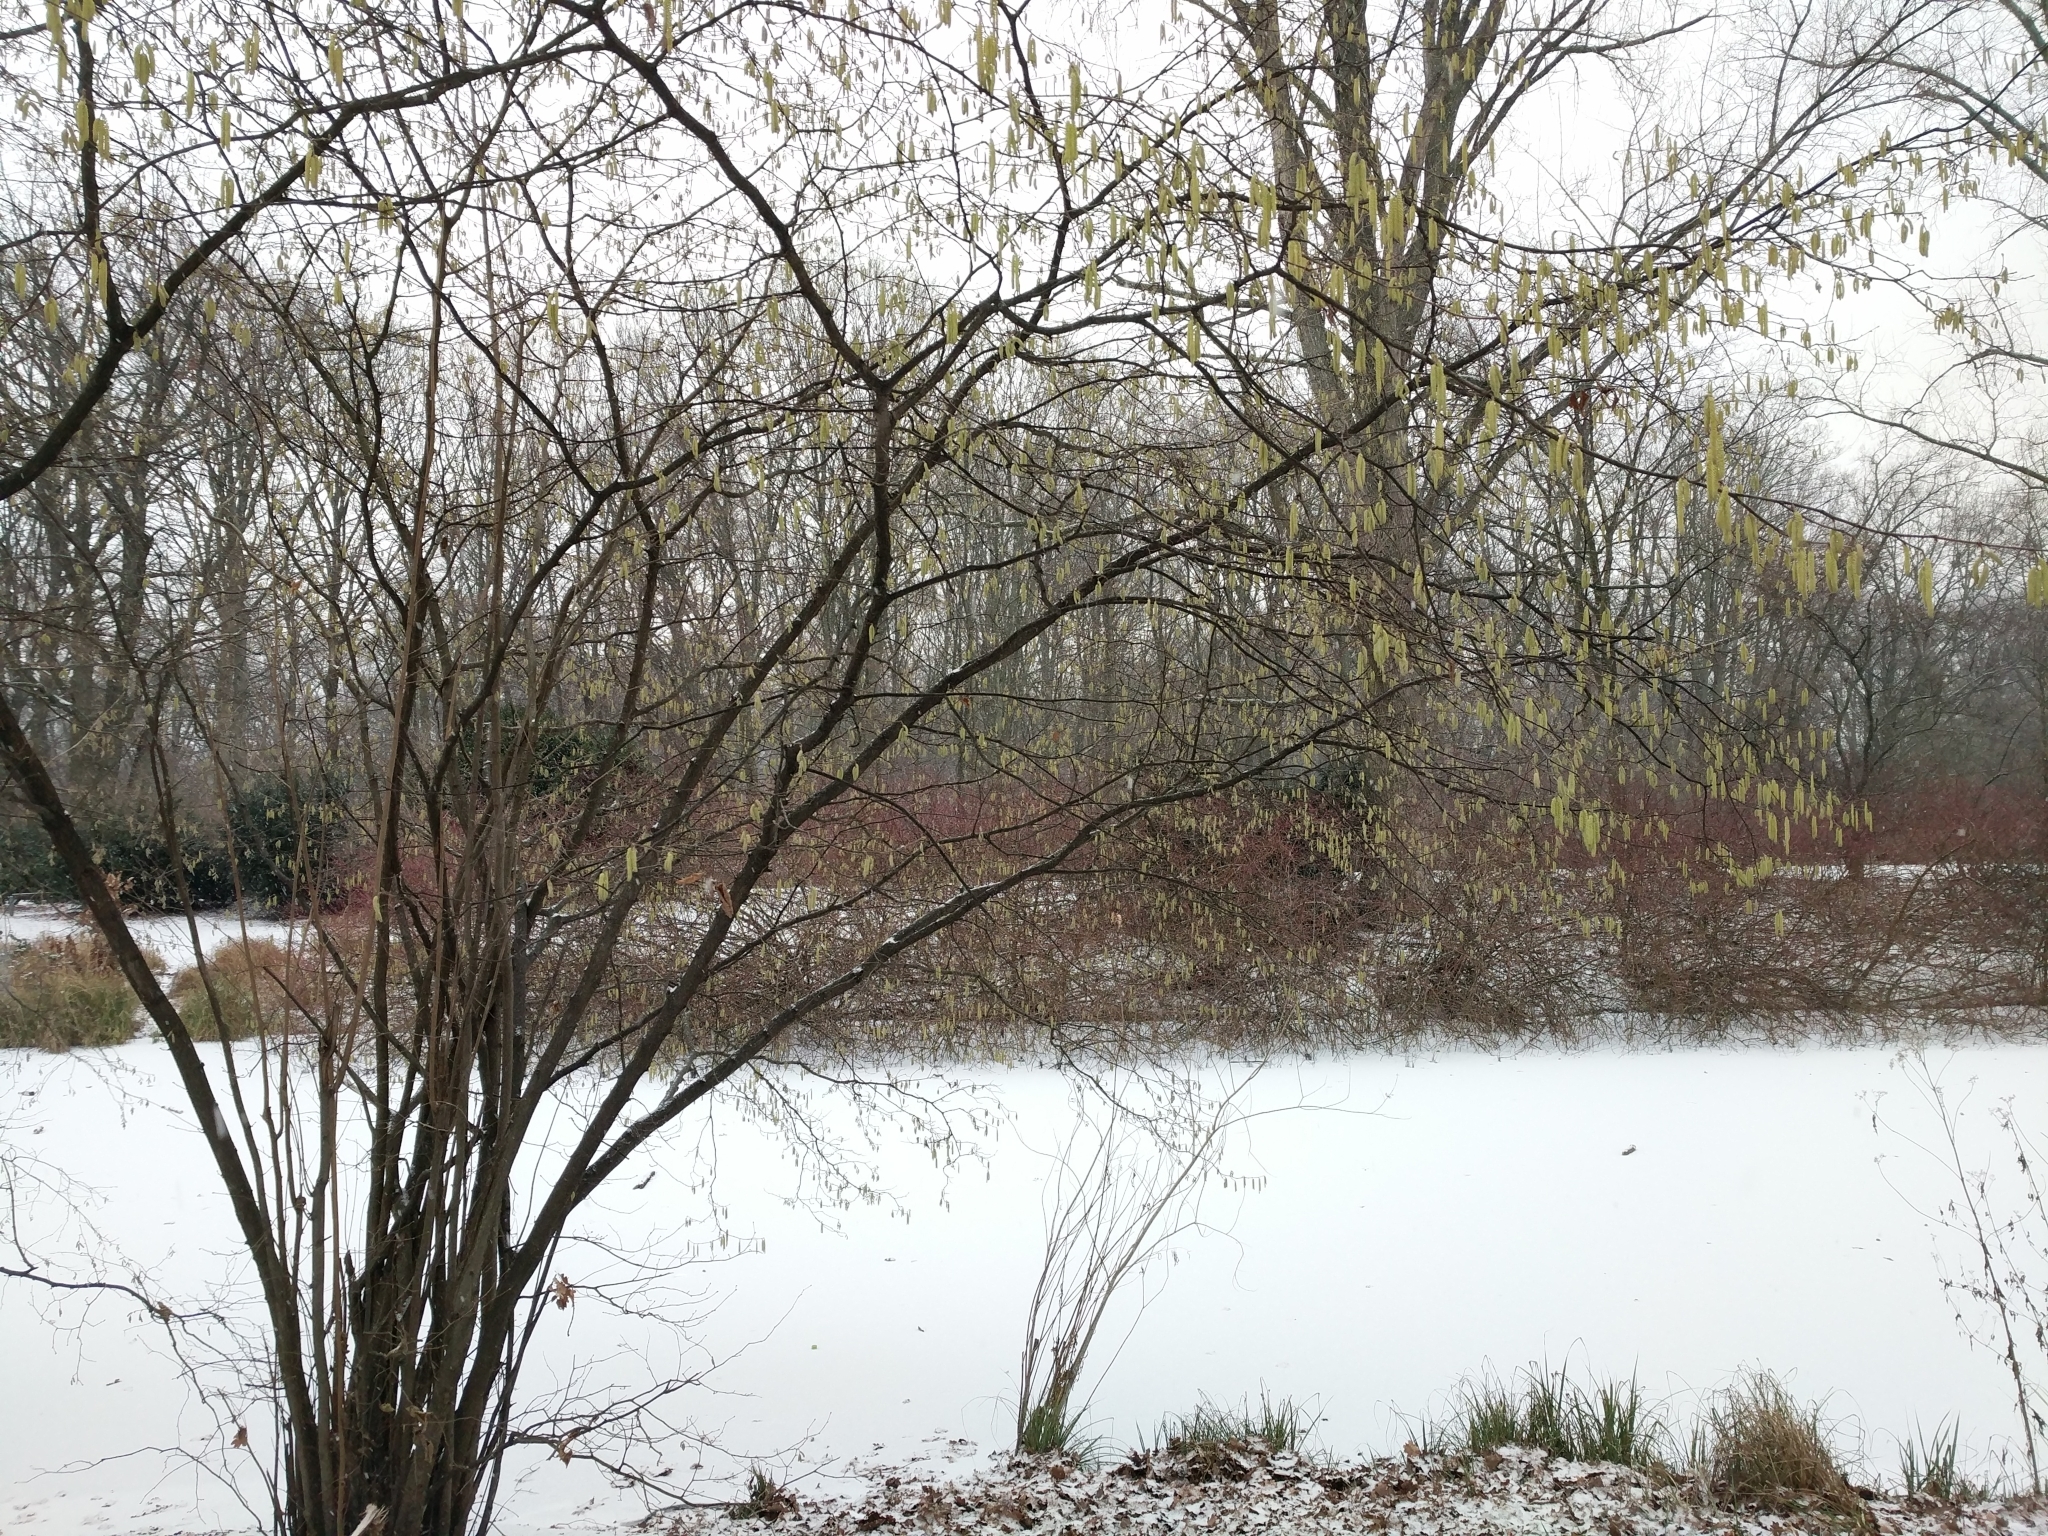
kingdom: Plantae
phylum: Tracheophyta
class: Magnoliopsida
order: Fagales
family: Betulaceae
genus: Corylus
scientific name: Corylus avellana
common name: European hazel
